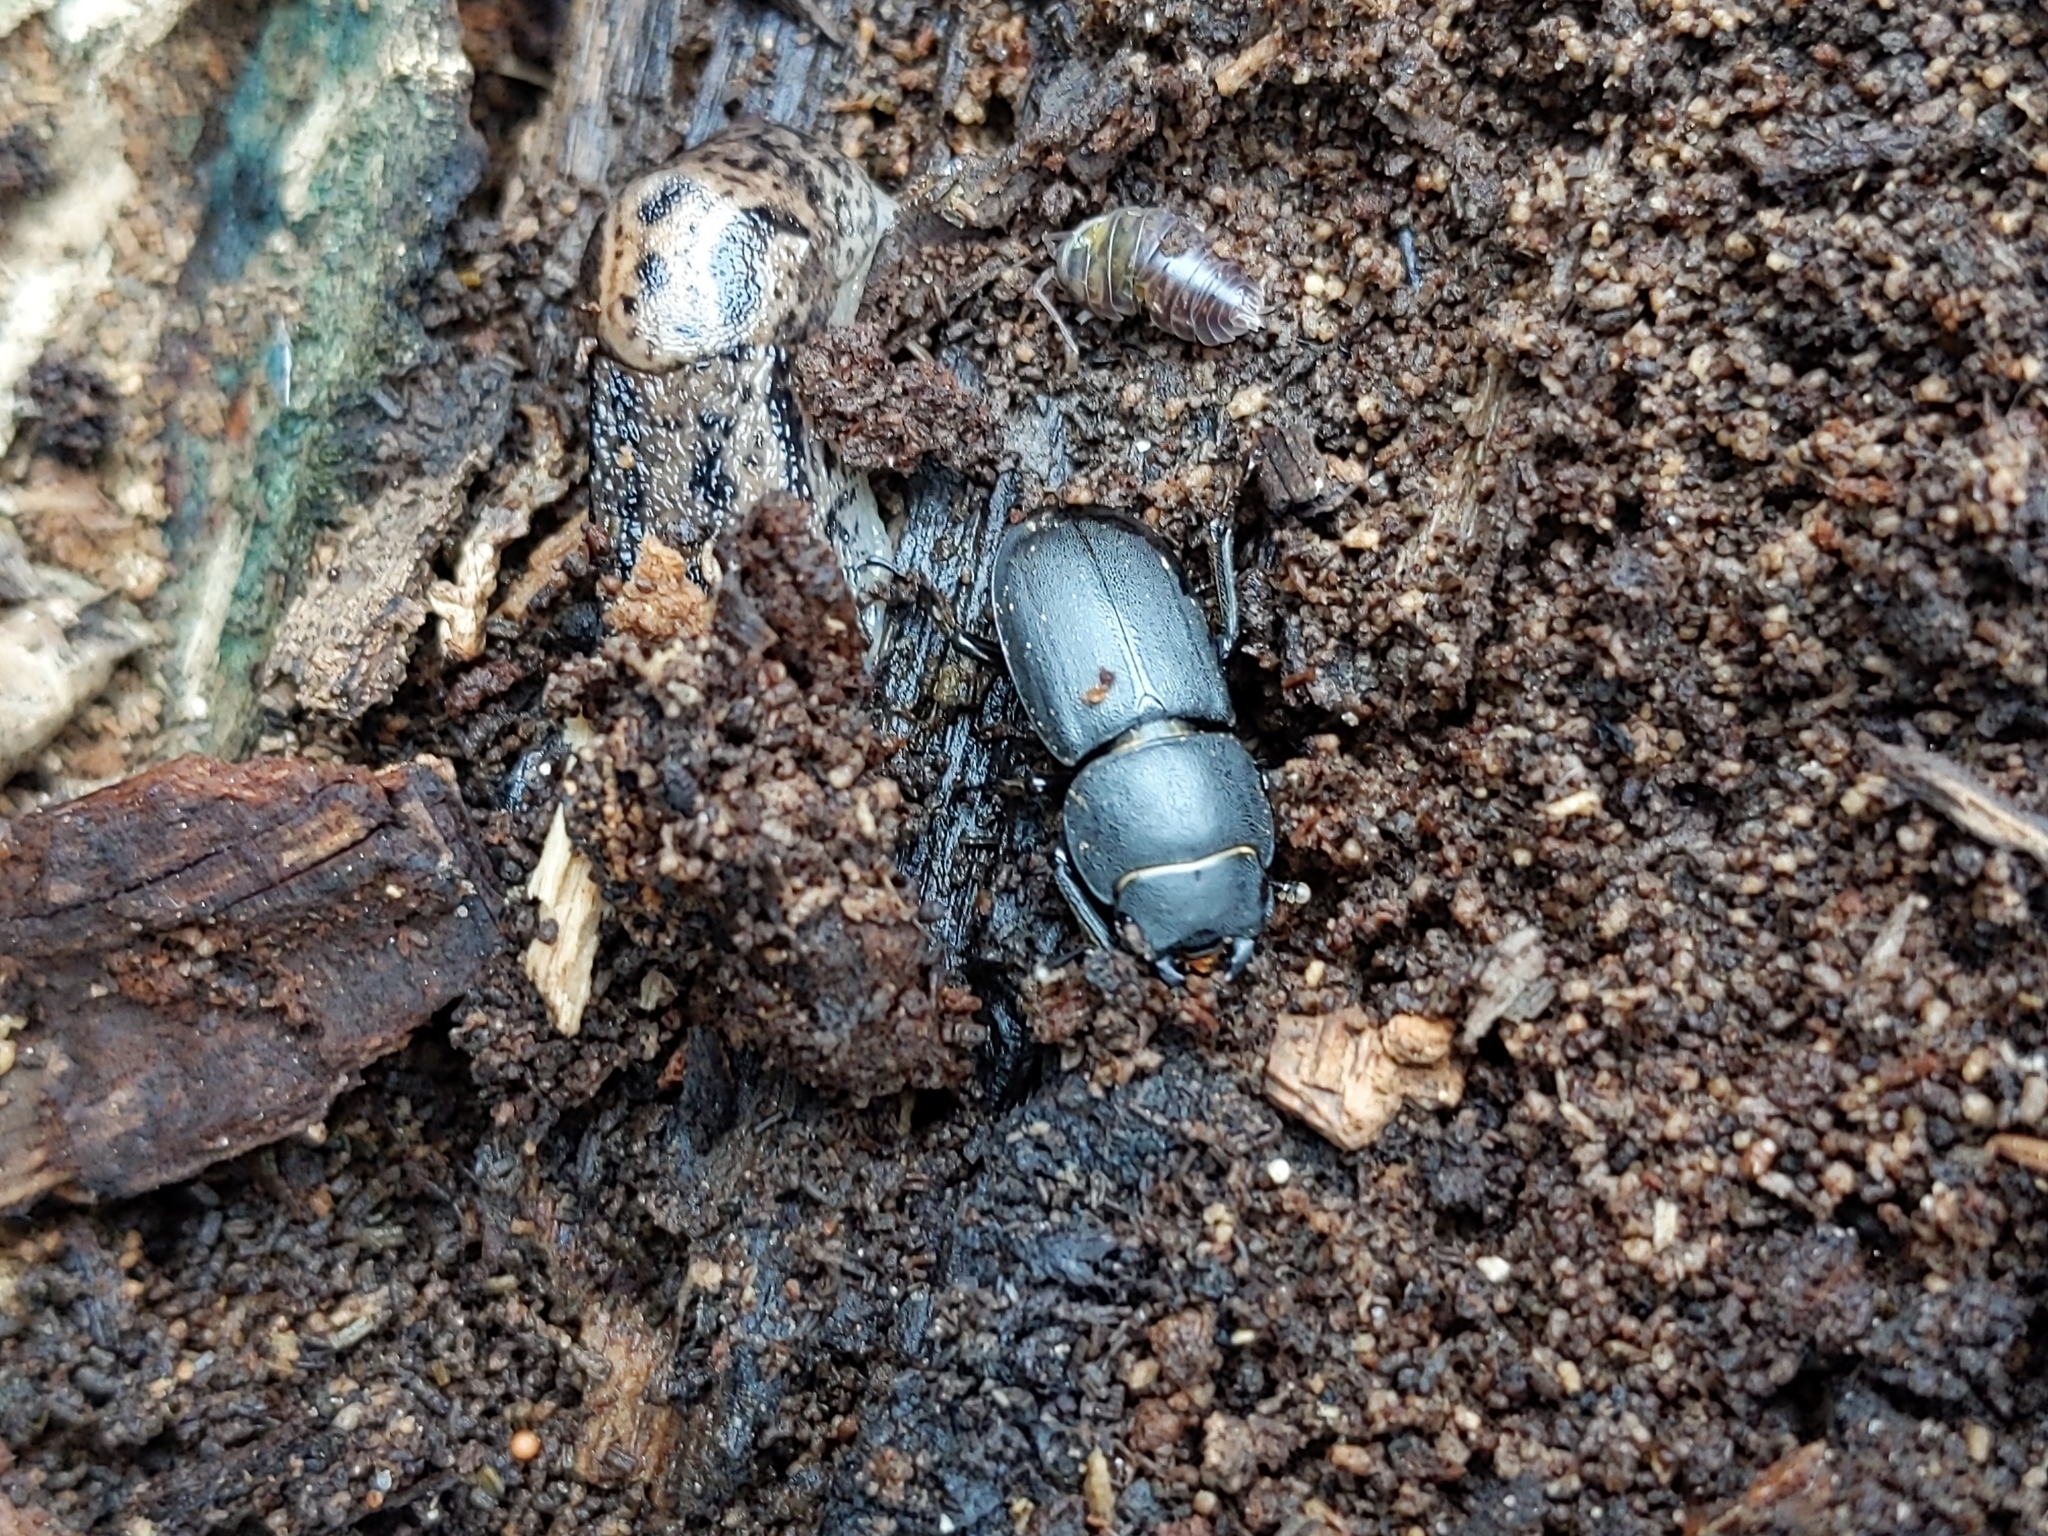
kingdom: Animalia
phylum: Arthropoda
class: Insecta
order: Coleoptera
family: Lucanidae
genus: Dorcus
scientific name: Dorcus parallelipipedus
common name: Lesser stag beetle
